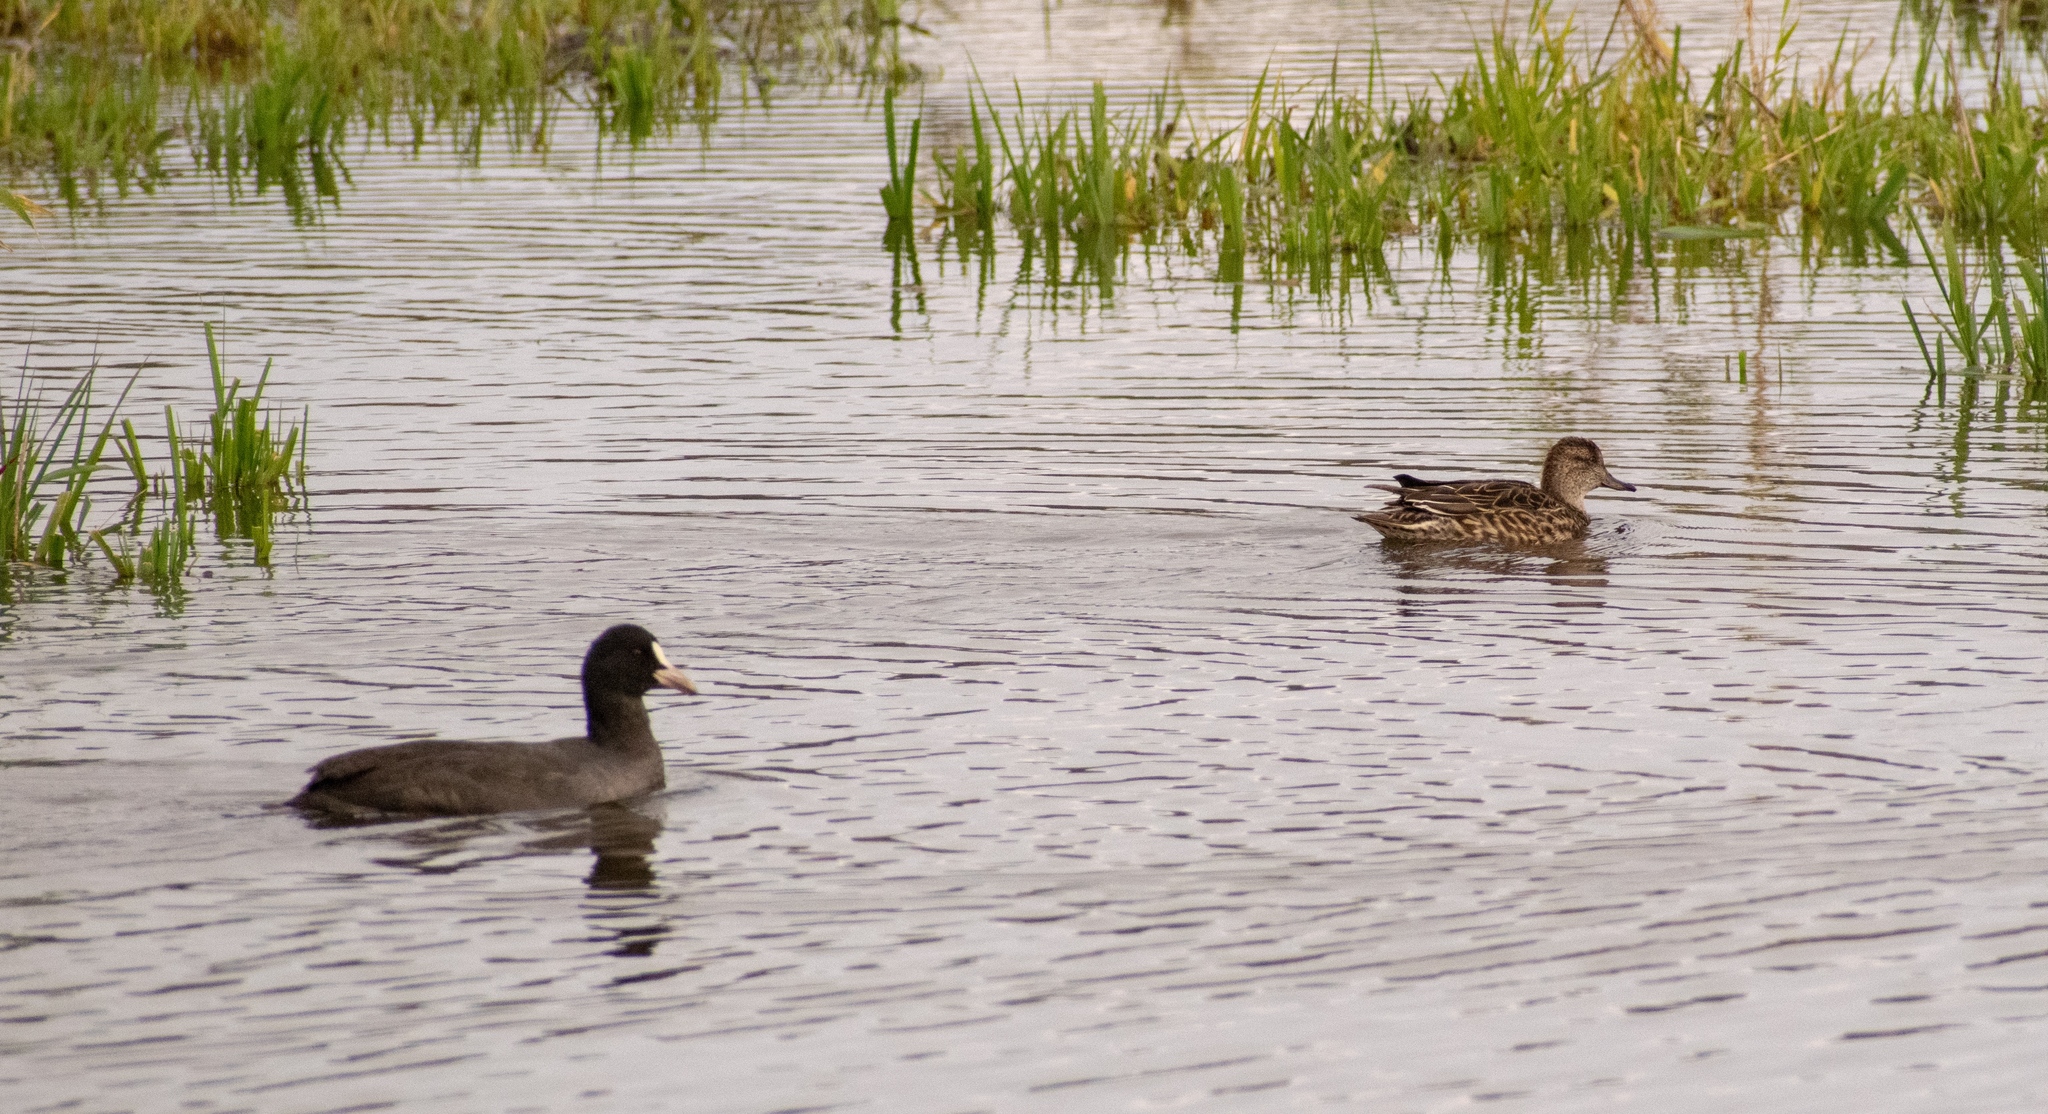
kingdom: Animalia
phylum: Chordata
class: Aves
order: Gruiformes
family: Rallidae
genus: Fulica
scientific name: Fulica atra
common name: Eurasian coot
